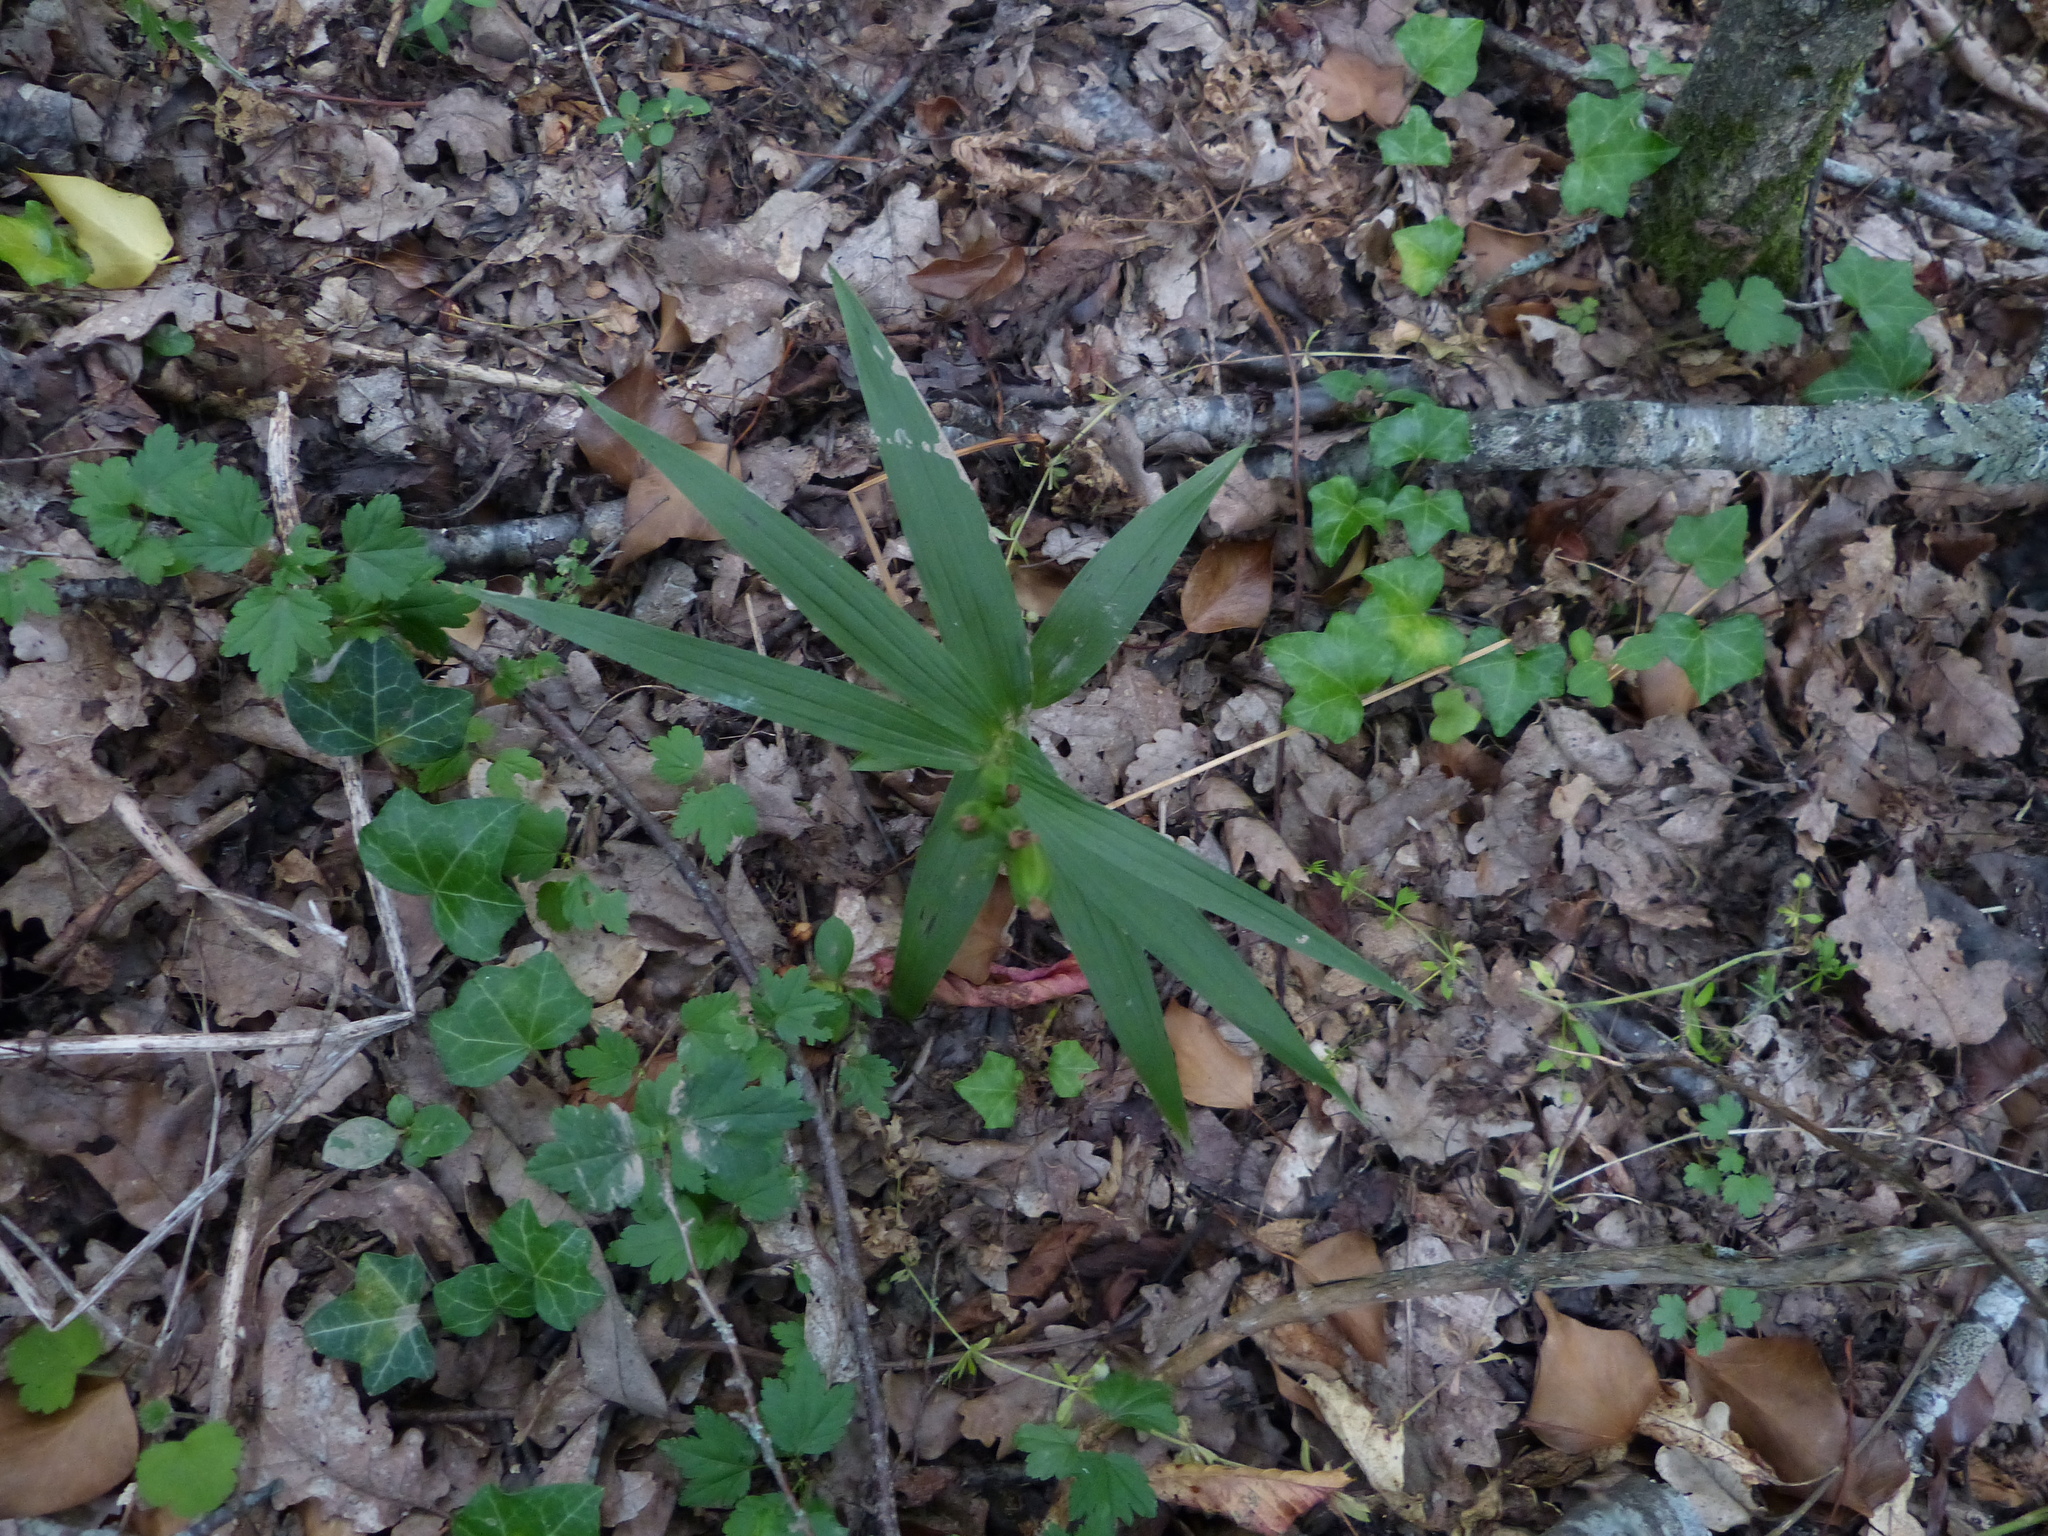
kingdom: Plantae
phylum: Tracheophyta
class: Liliopsida
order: Asparagales
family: Orchidaceae
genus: Cephalanthera
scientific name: Cephalanthera longifolia
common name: Narrow-leaved helleborine
